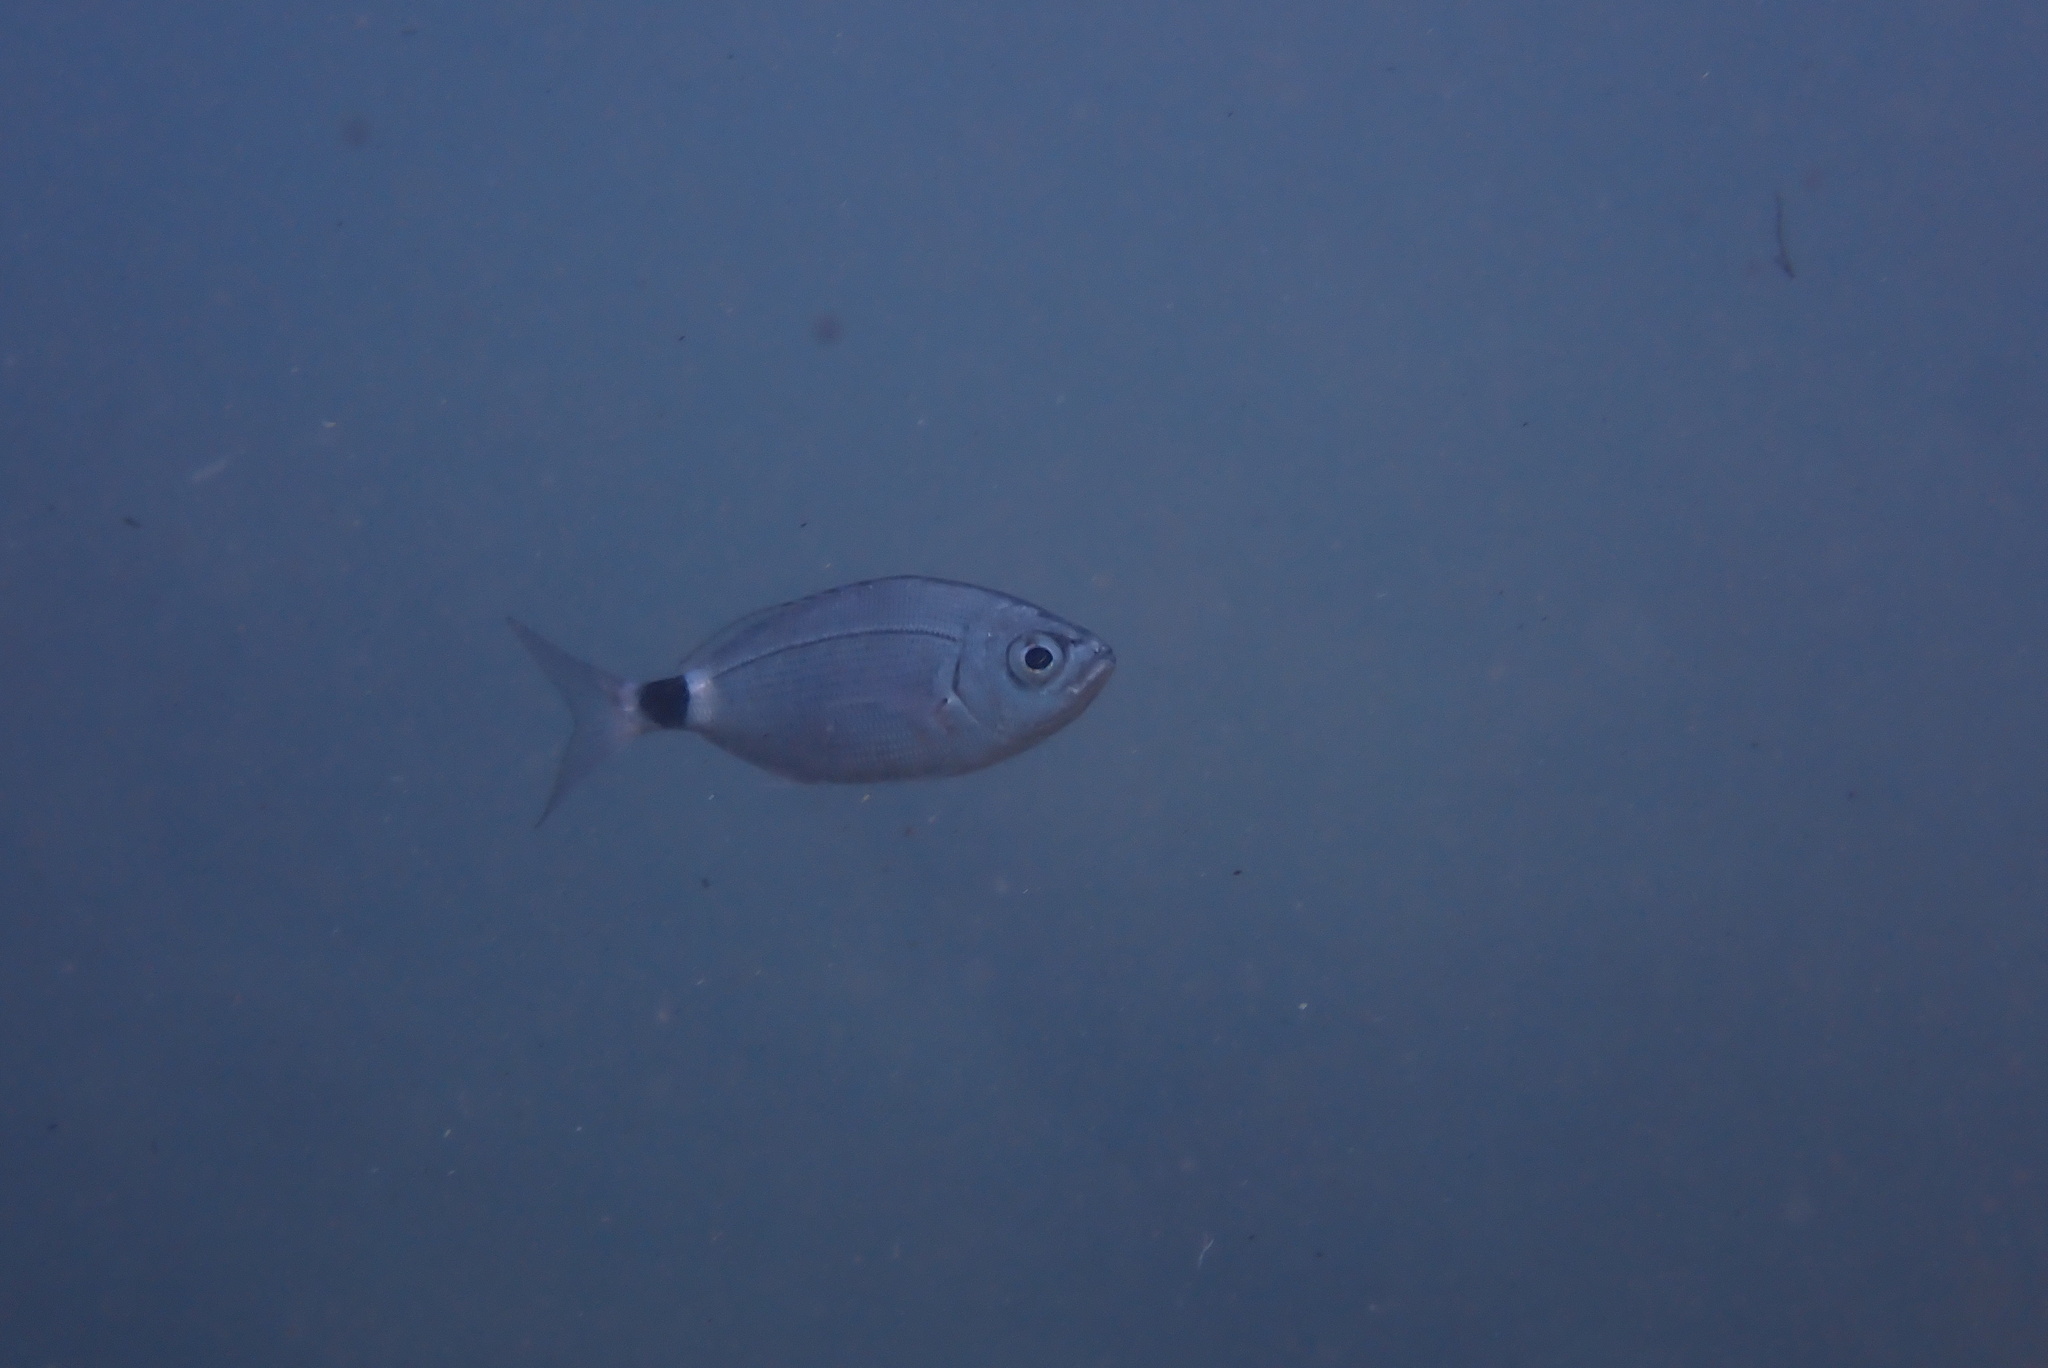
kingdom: Animalia
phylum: Chordata
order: Perciformes
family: Sparidae
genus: Oblada
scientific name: Oblada melanura
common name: Saddled seabream
